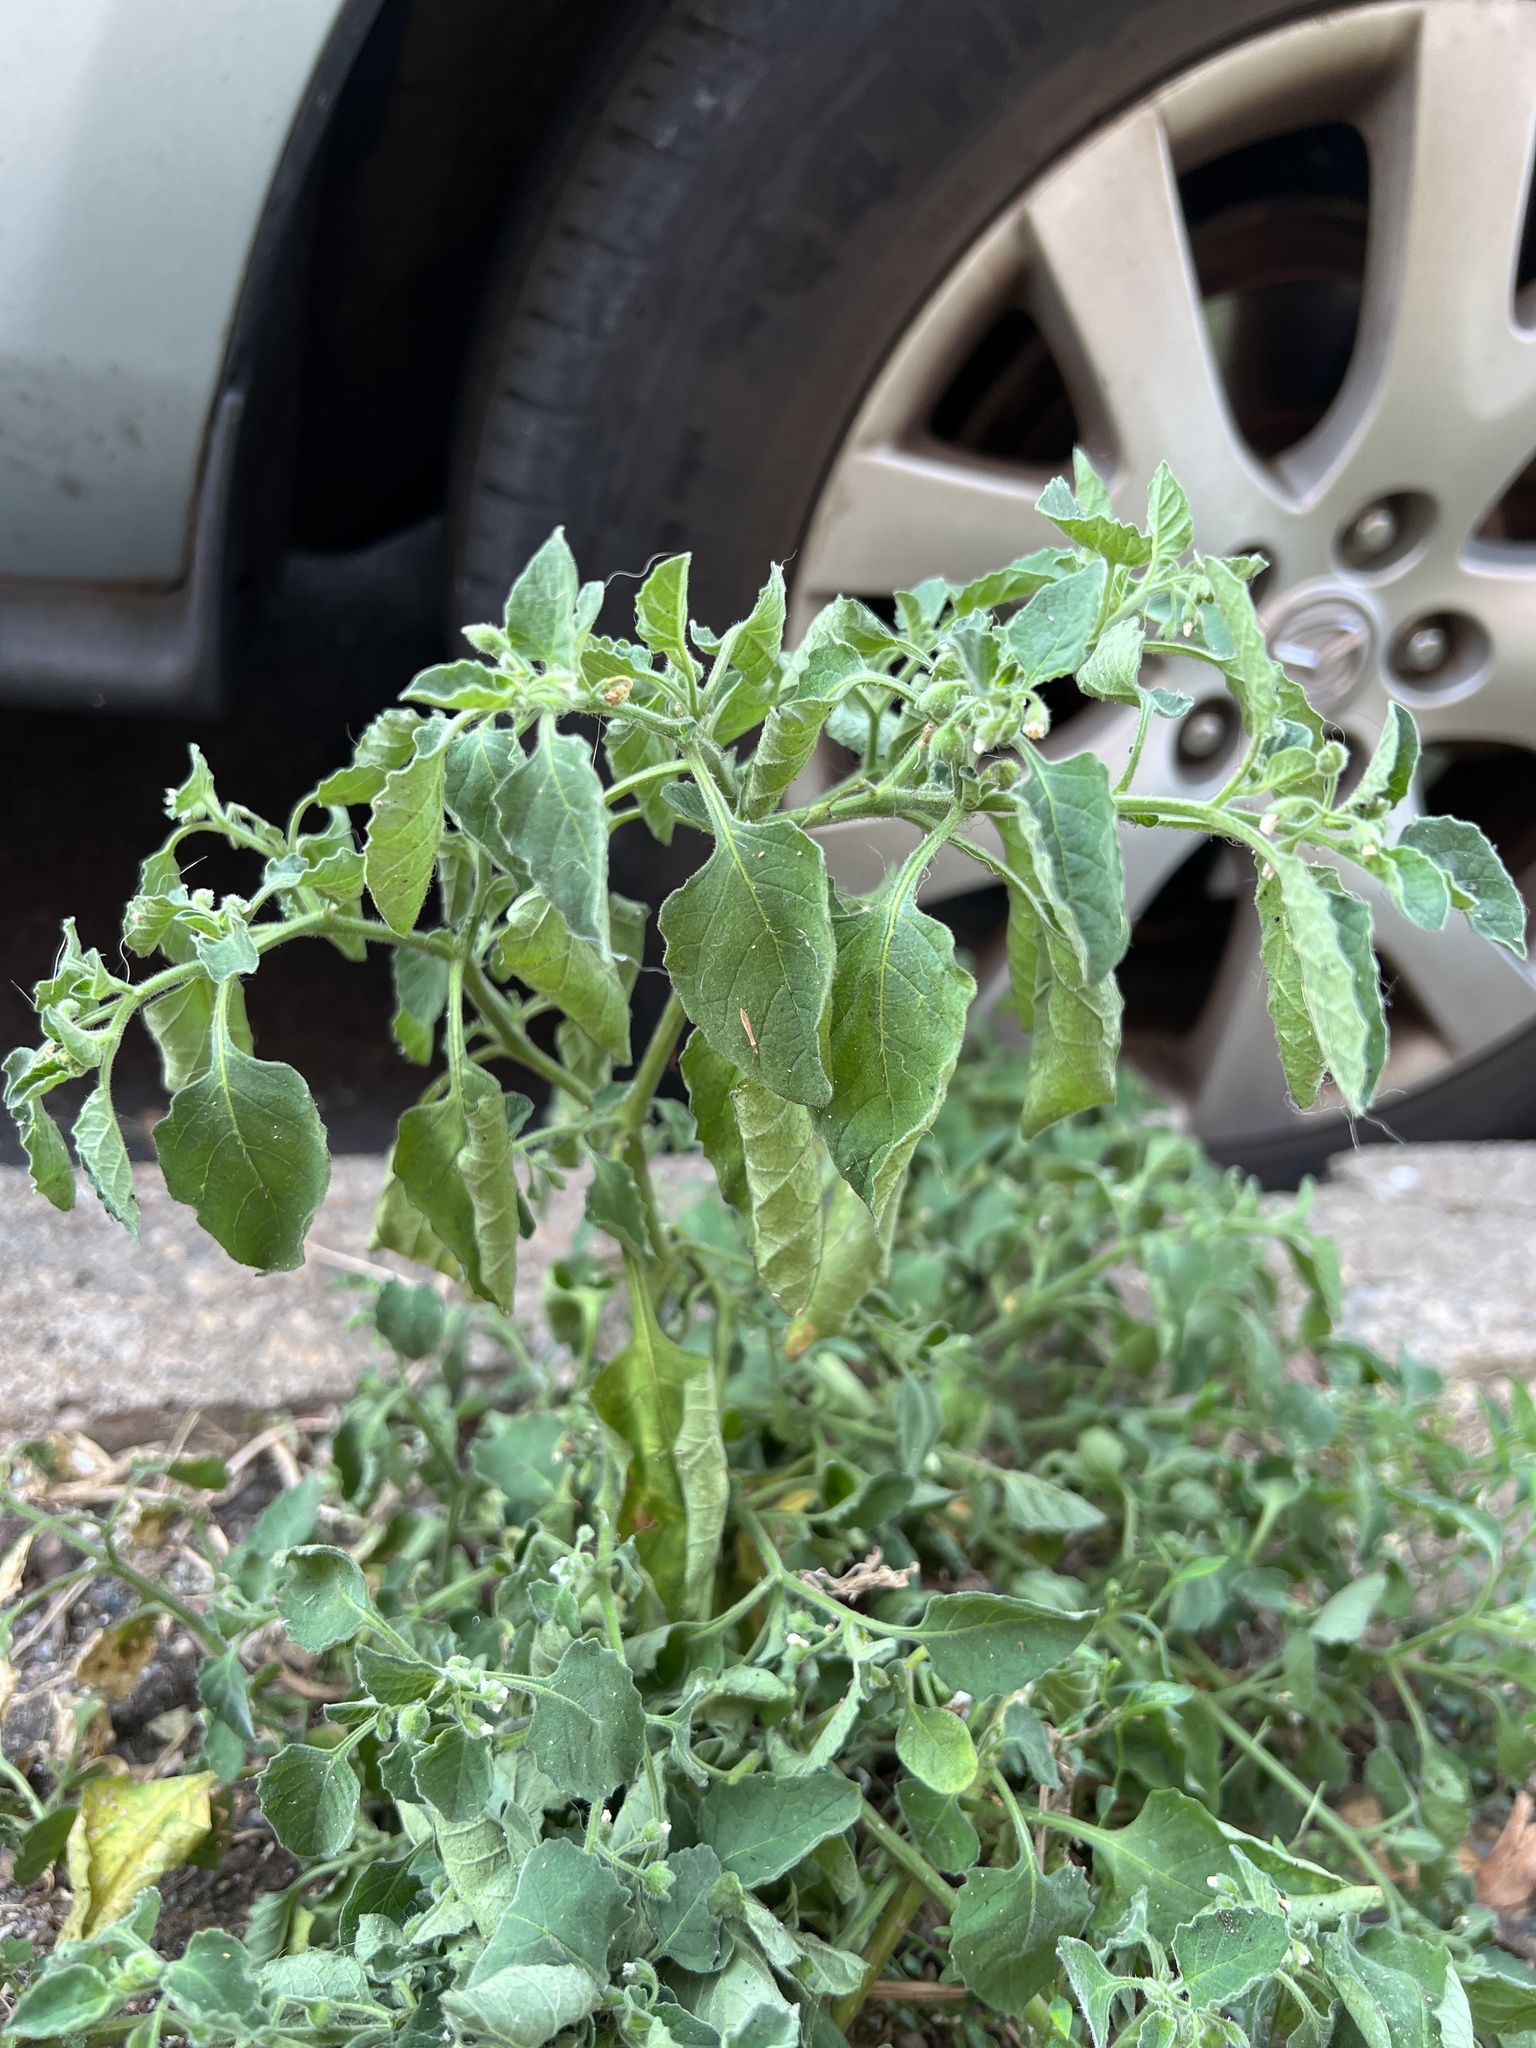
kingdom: Plantae
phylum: Tracheophyta
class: Magnoliopsida
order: Solanales
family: Solanaceae
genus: Solanum
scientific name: Solanum sarrachoides
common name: Leafy-fruited nightshade
